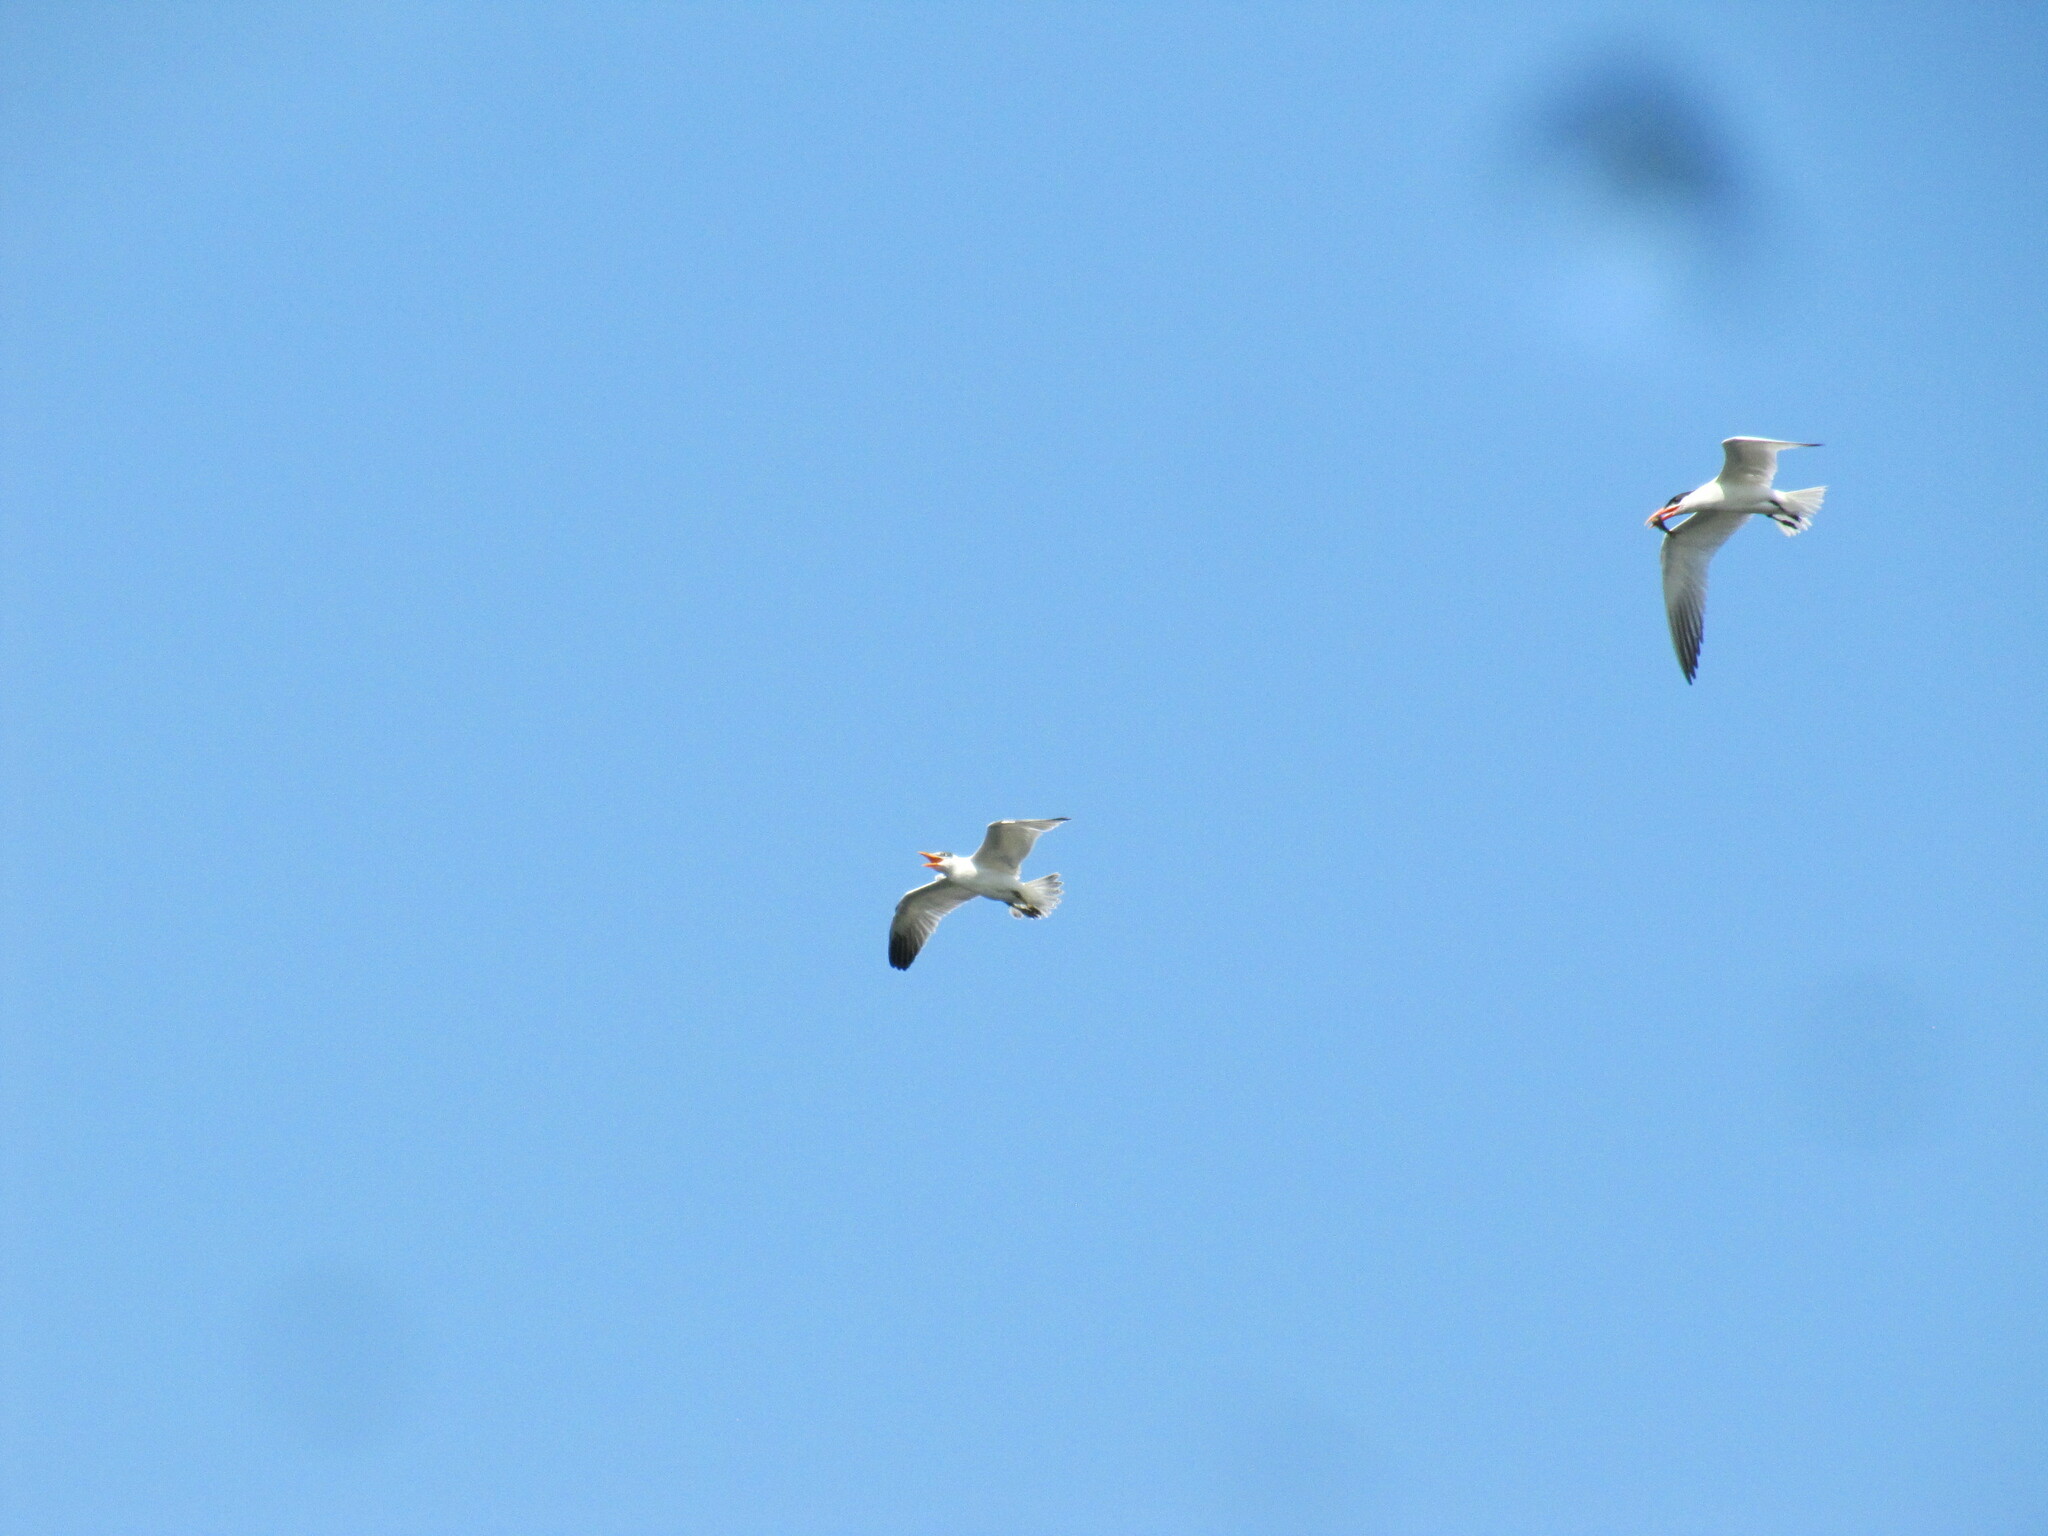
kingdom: Animalia
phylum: Chordata
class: Aves
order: Charadriiformes
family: Laridae
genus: Hydroprogne
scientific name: Hydroprogne caspia
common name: Caspian tern
